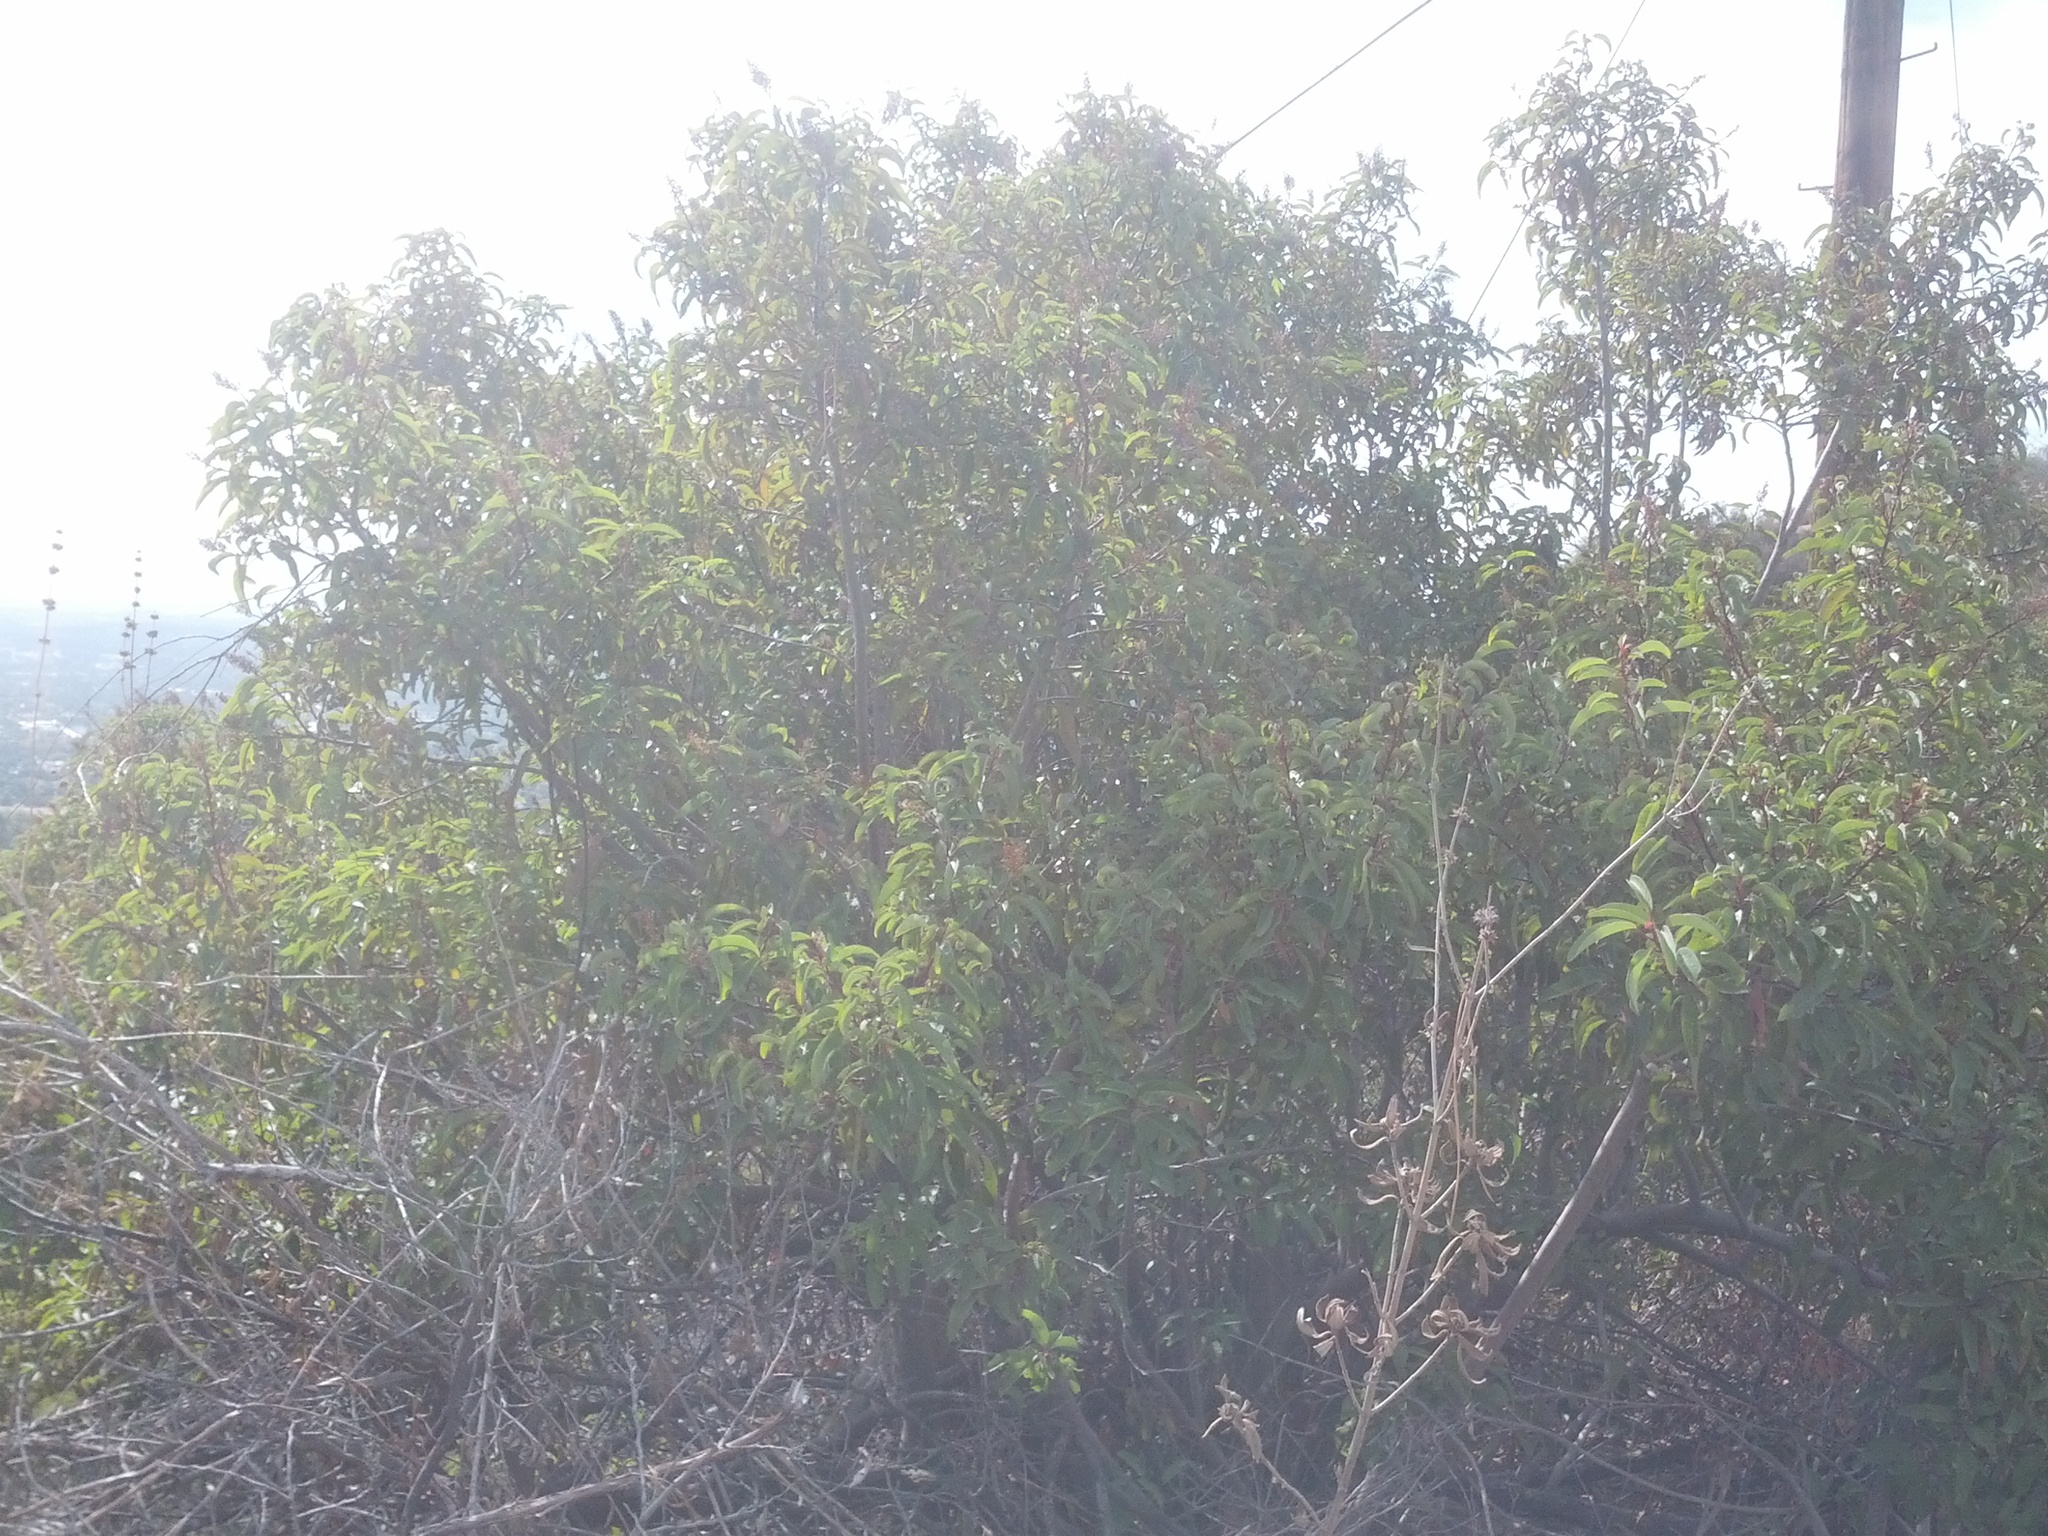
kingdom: Plantae
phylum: Tracheophyta
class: Magnoliopsida
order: Sapindales
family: Anacardiaceae
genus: Malosma
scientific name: Malosma laurina
